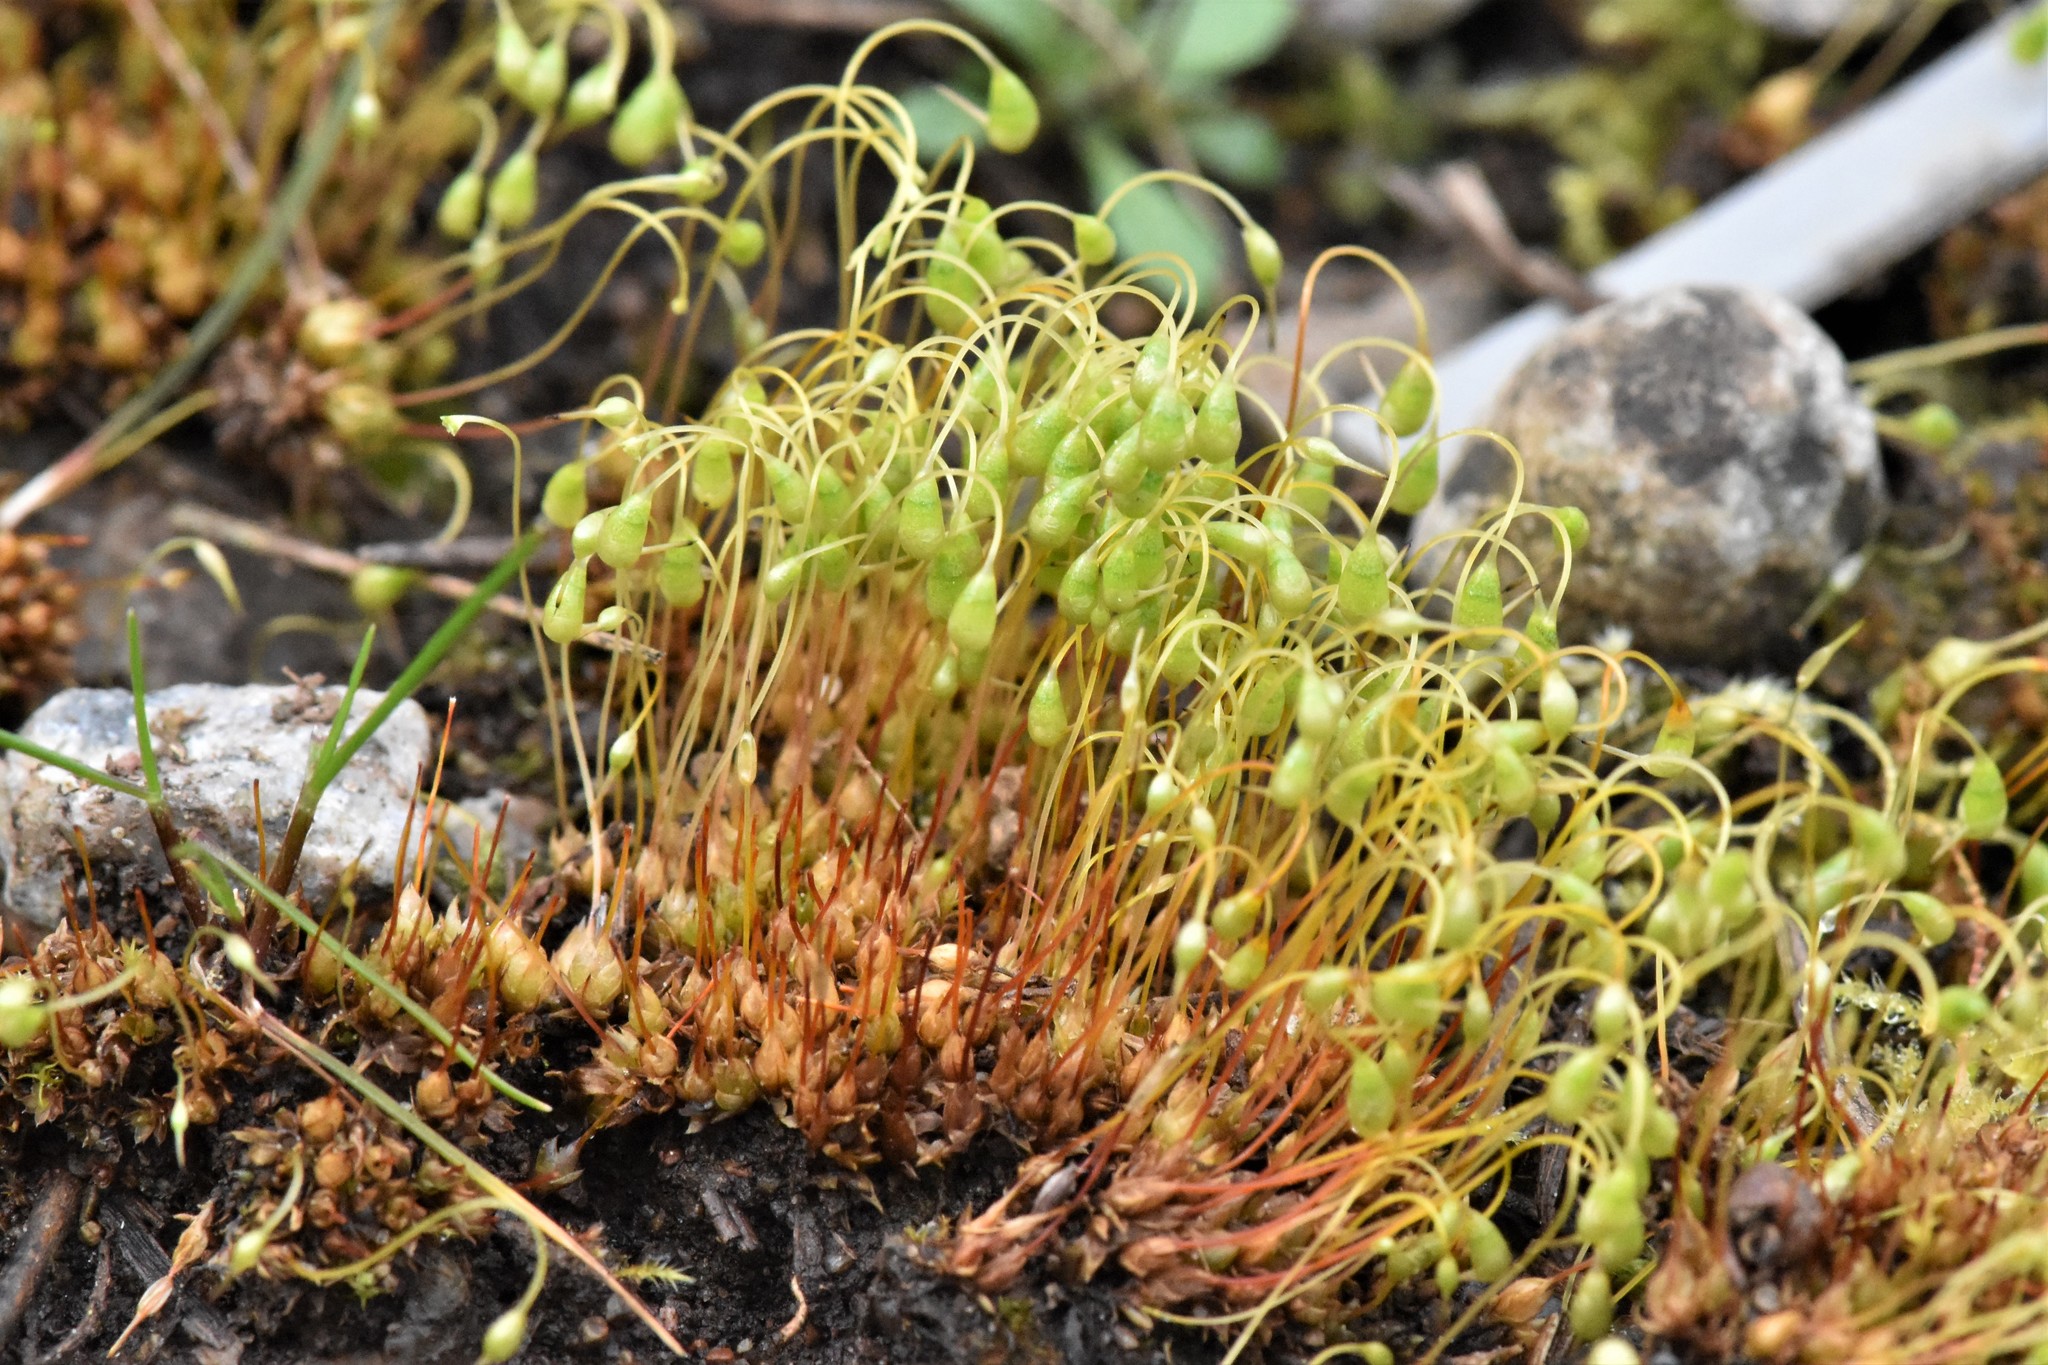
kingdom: Plantae
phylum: Bryophyta
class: Bryopsida
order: Funariales
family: Funariaceae
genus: Funaria
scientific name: Funaria hygrometrica
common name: Common cord moss
